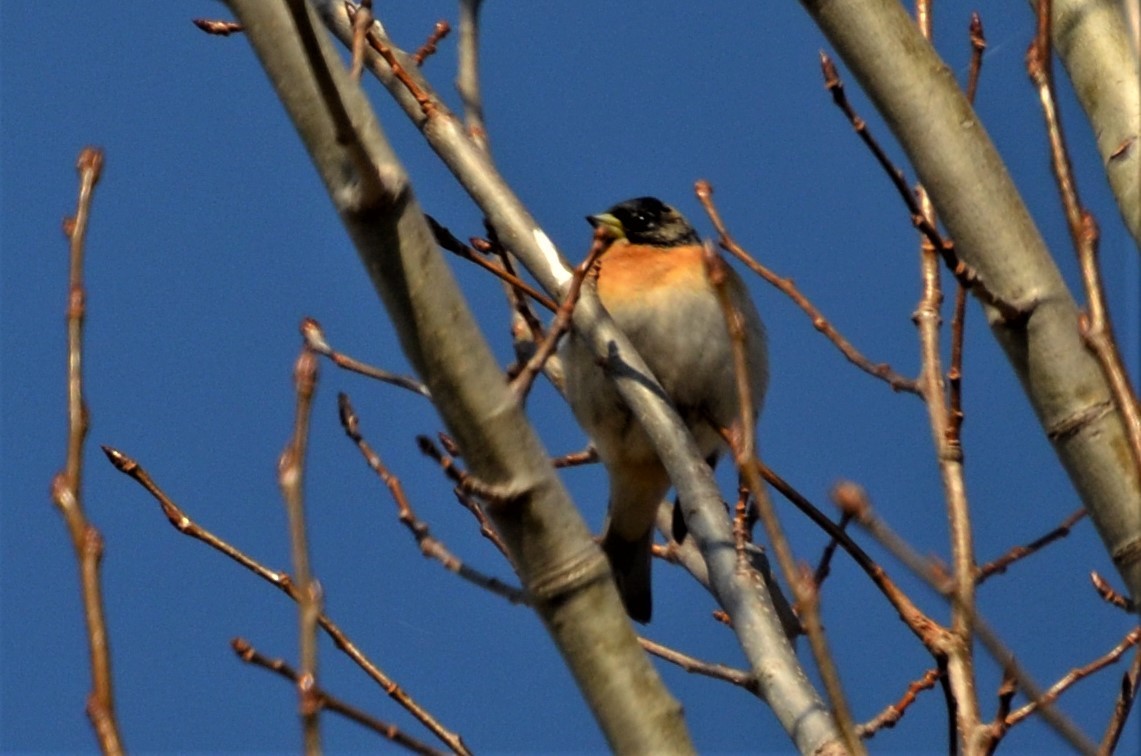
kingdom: Animalia
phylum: Chordata
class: Aves
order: Passeriformes
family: Fringillidae
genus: Fringilla
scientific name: Fringilla montifringilla
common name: Brambling
